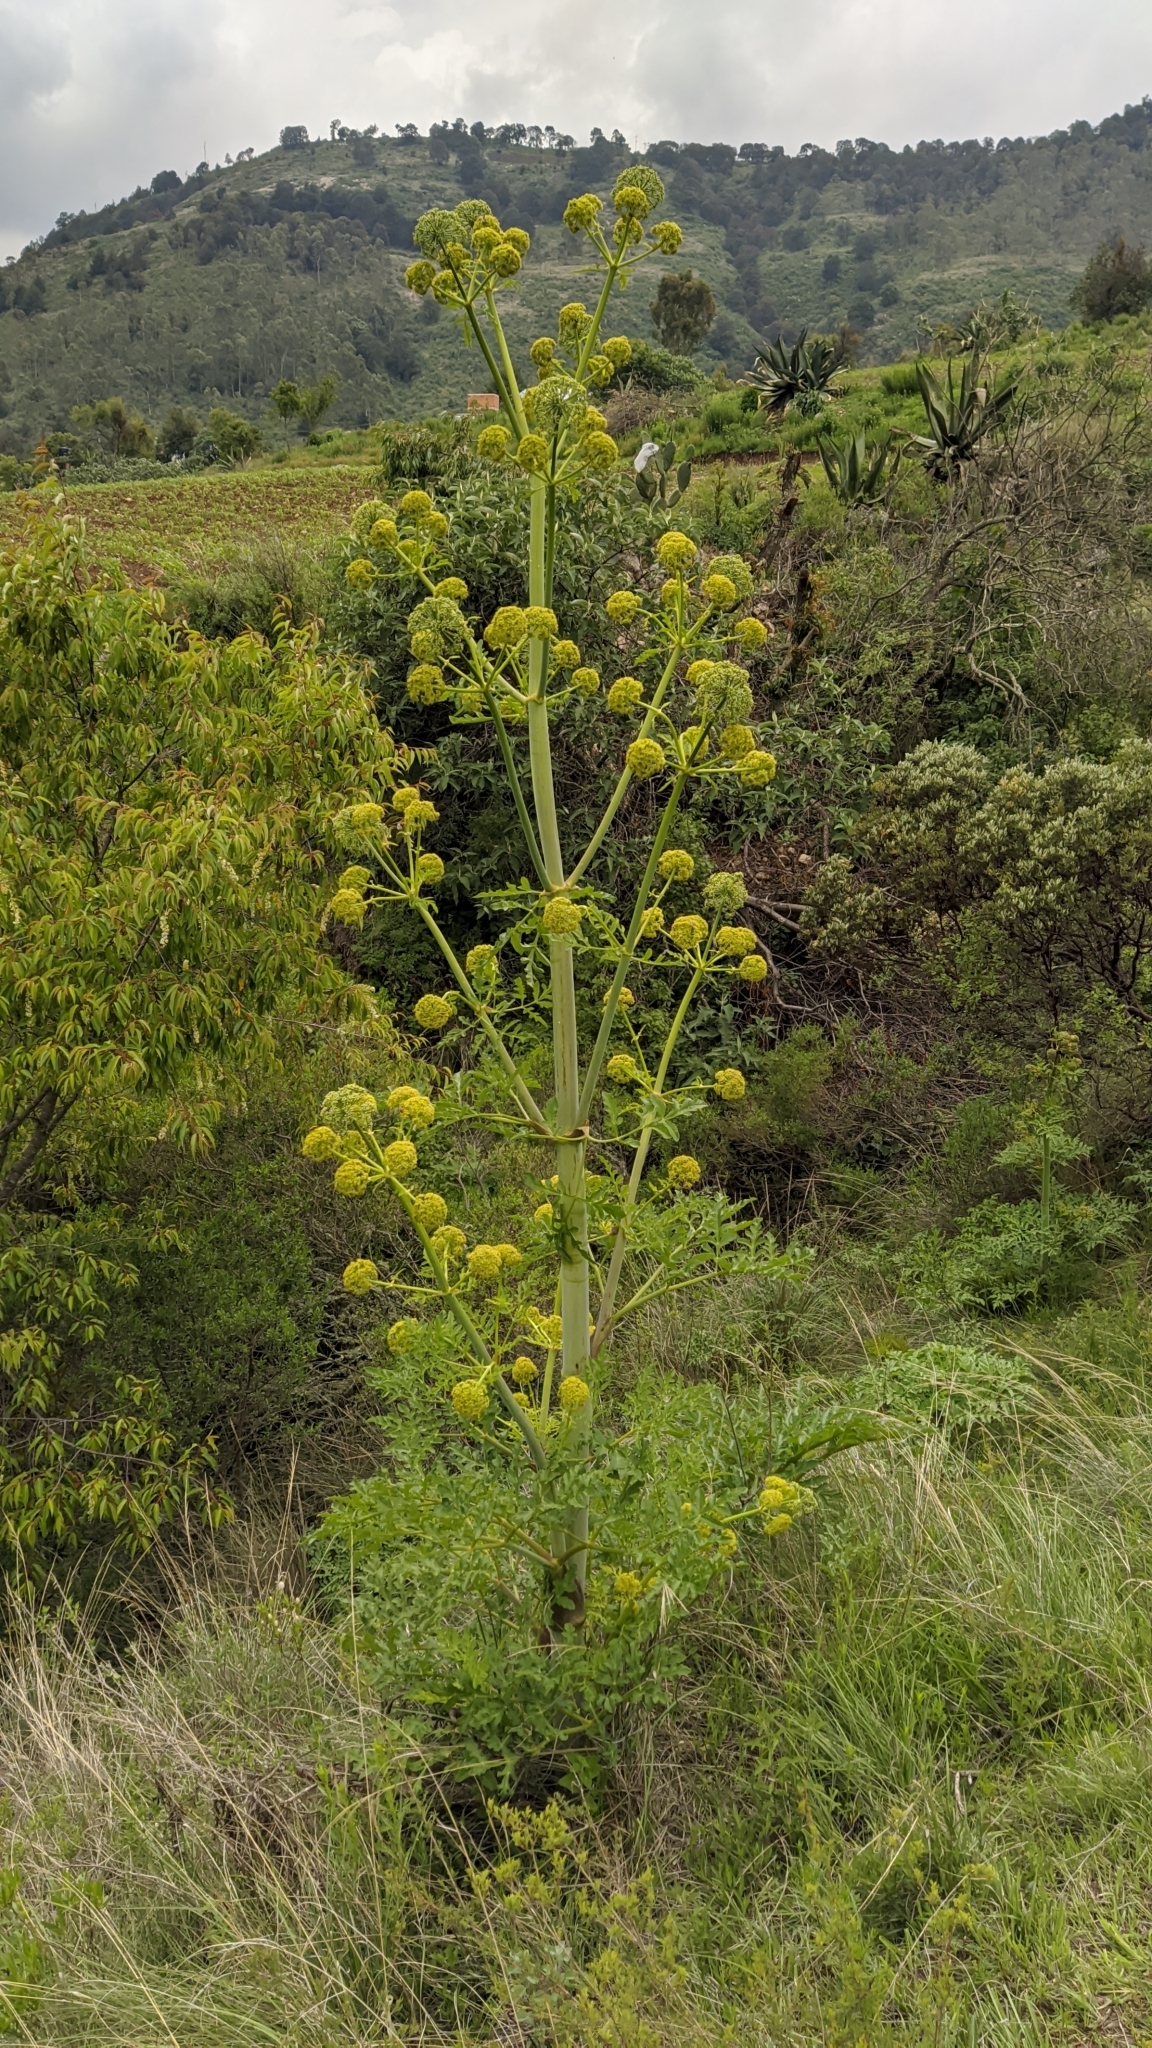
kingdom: Plantae
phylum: Tracheophyta
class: Magnoliopsida
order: Apiales
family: Apiaceae
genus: Prionosciadium
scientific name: Prionosciadium thapsoides
